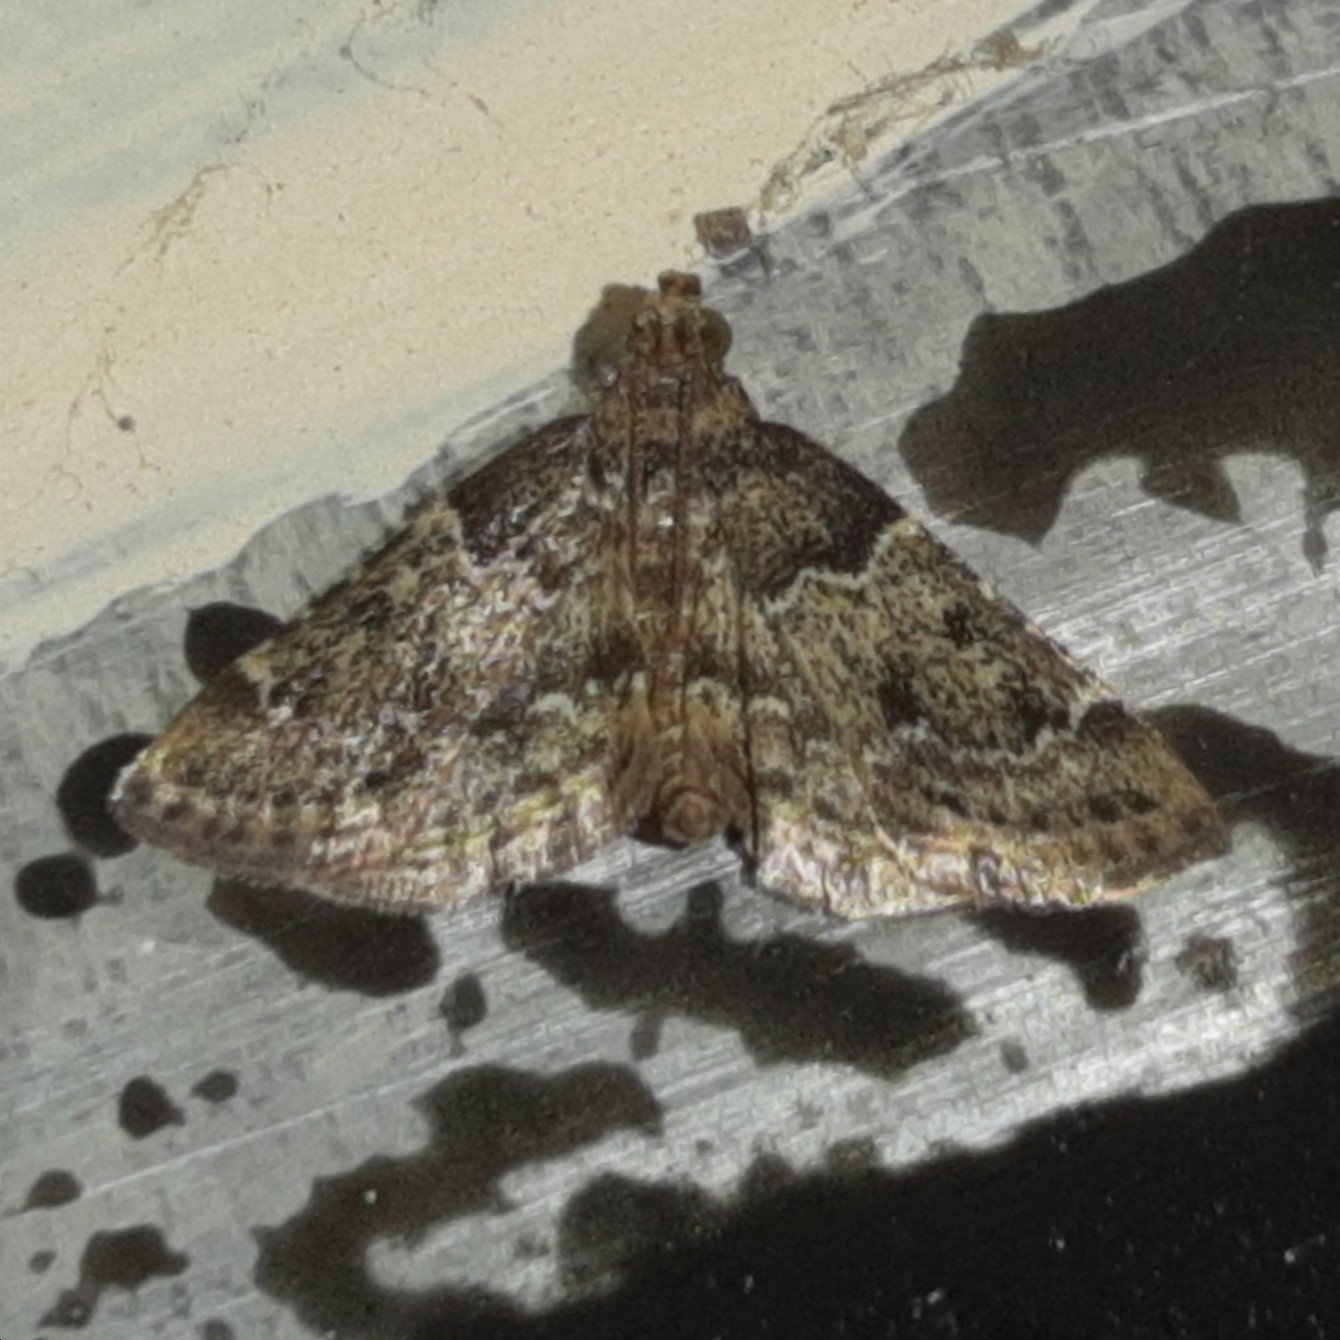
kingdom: Animalia
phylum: Arthropoda
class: Insecta
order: Lepidoptera
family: Pyralidae
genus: Pyralis
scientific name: Pyralis manihotalis
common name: Moth
